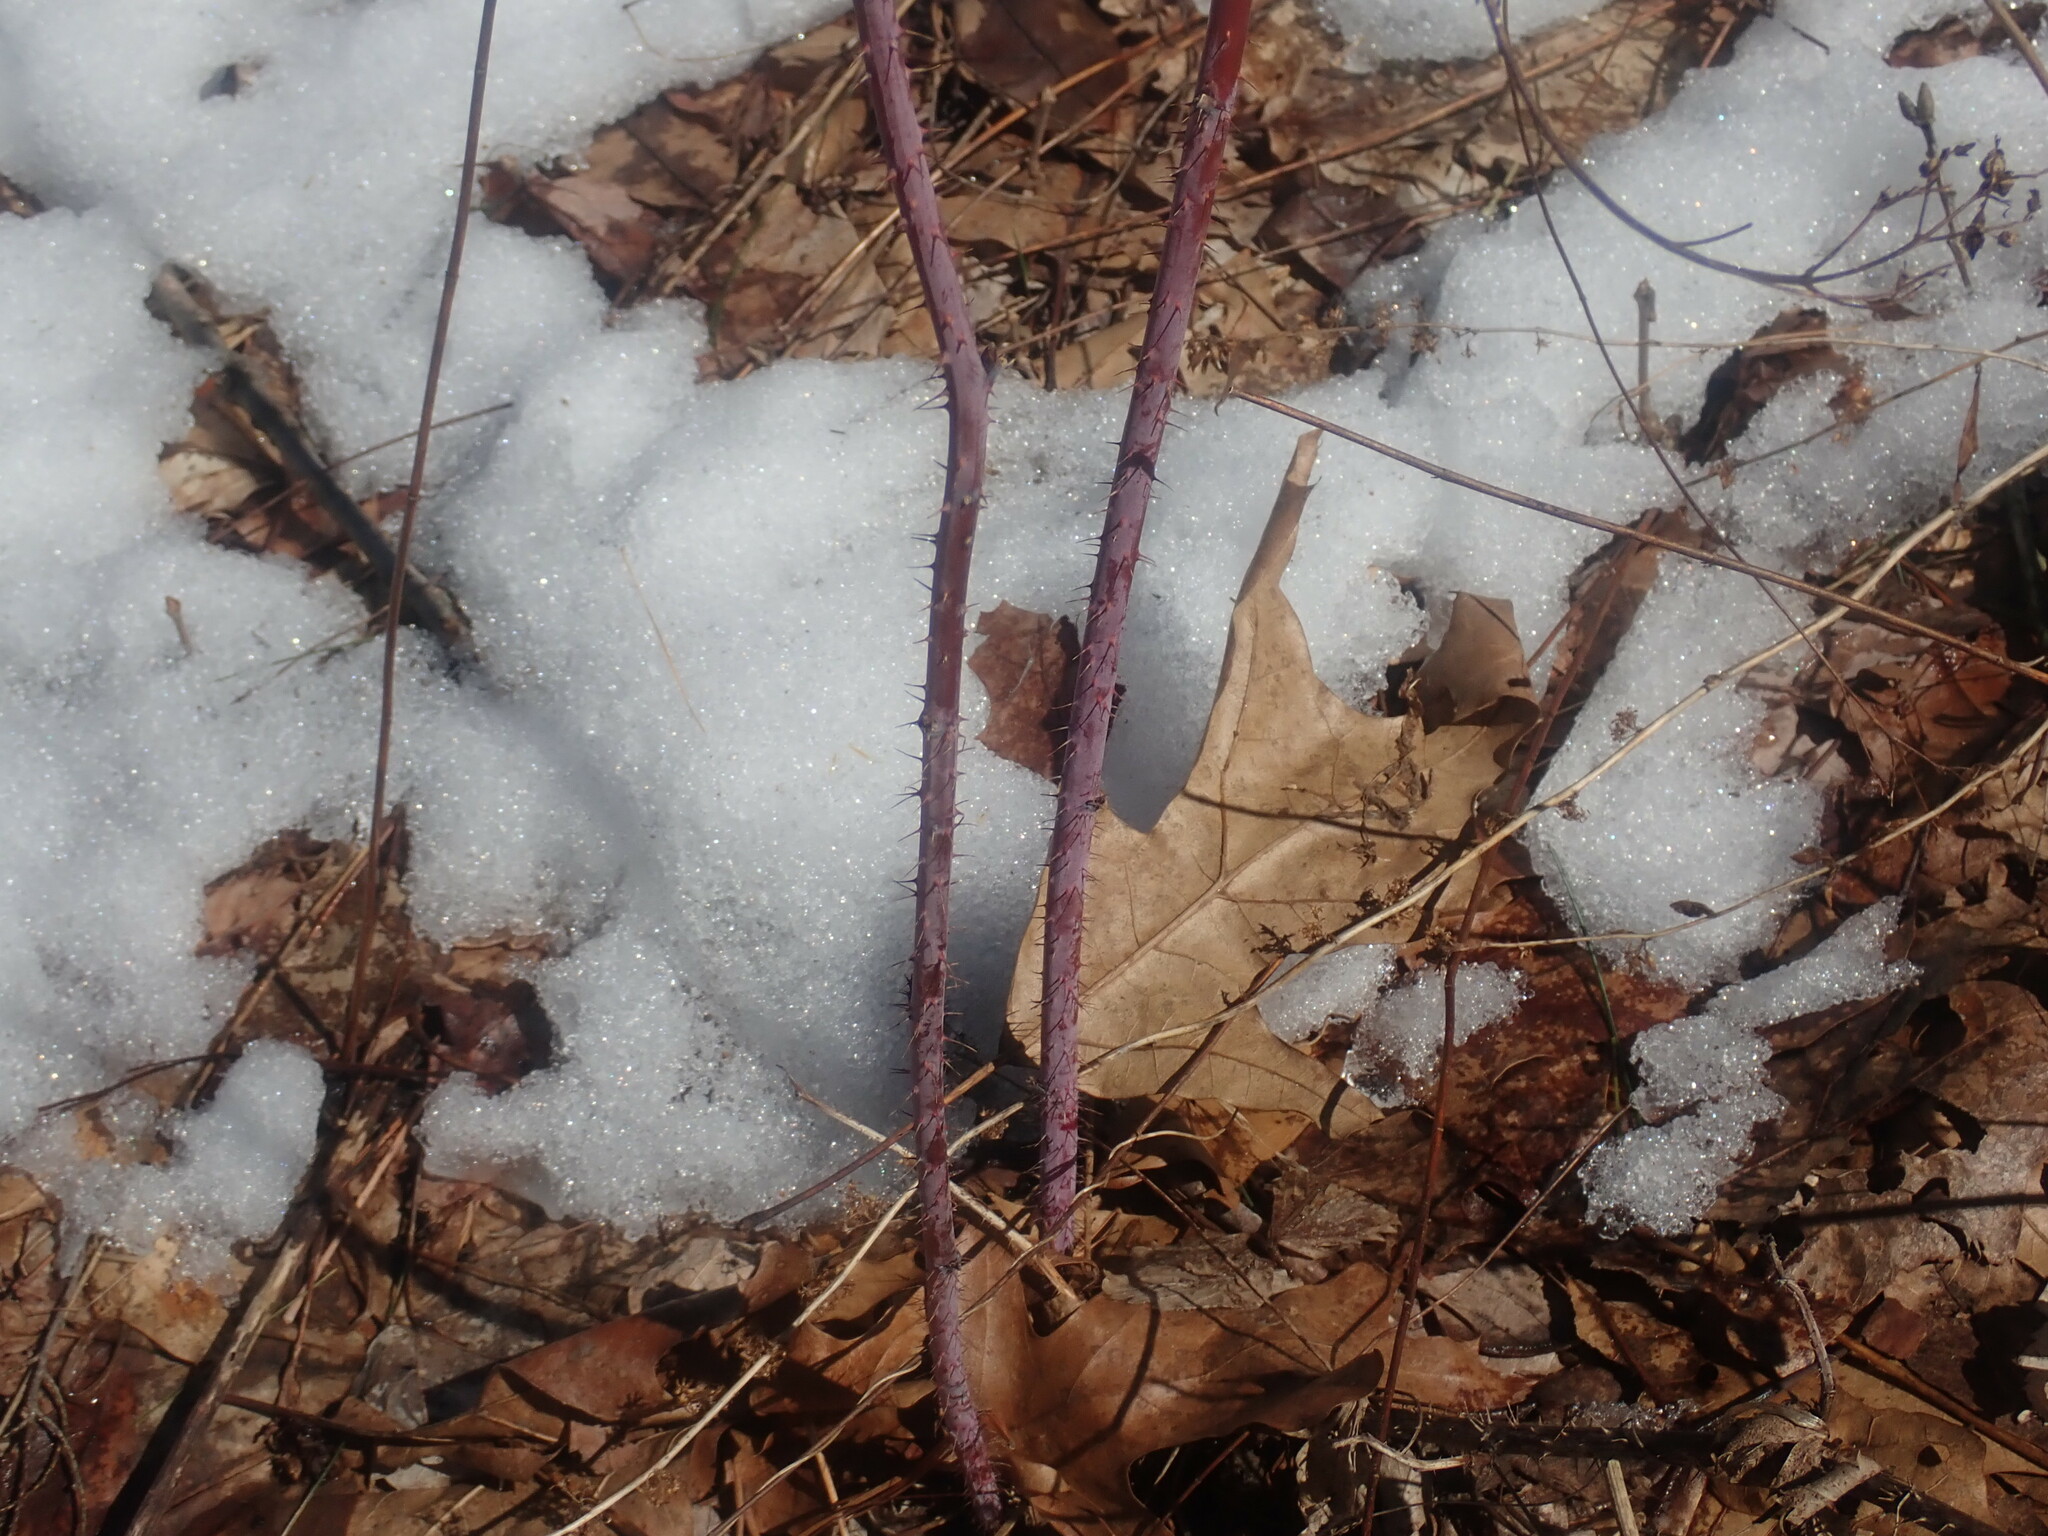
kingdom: Plantae
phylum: Tracheophyta
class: Magnoliopsida
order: Rosales
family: Rosaceae
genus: Rubus
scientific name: Rubus occidentalis
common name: Black raspberry
